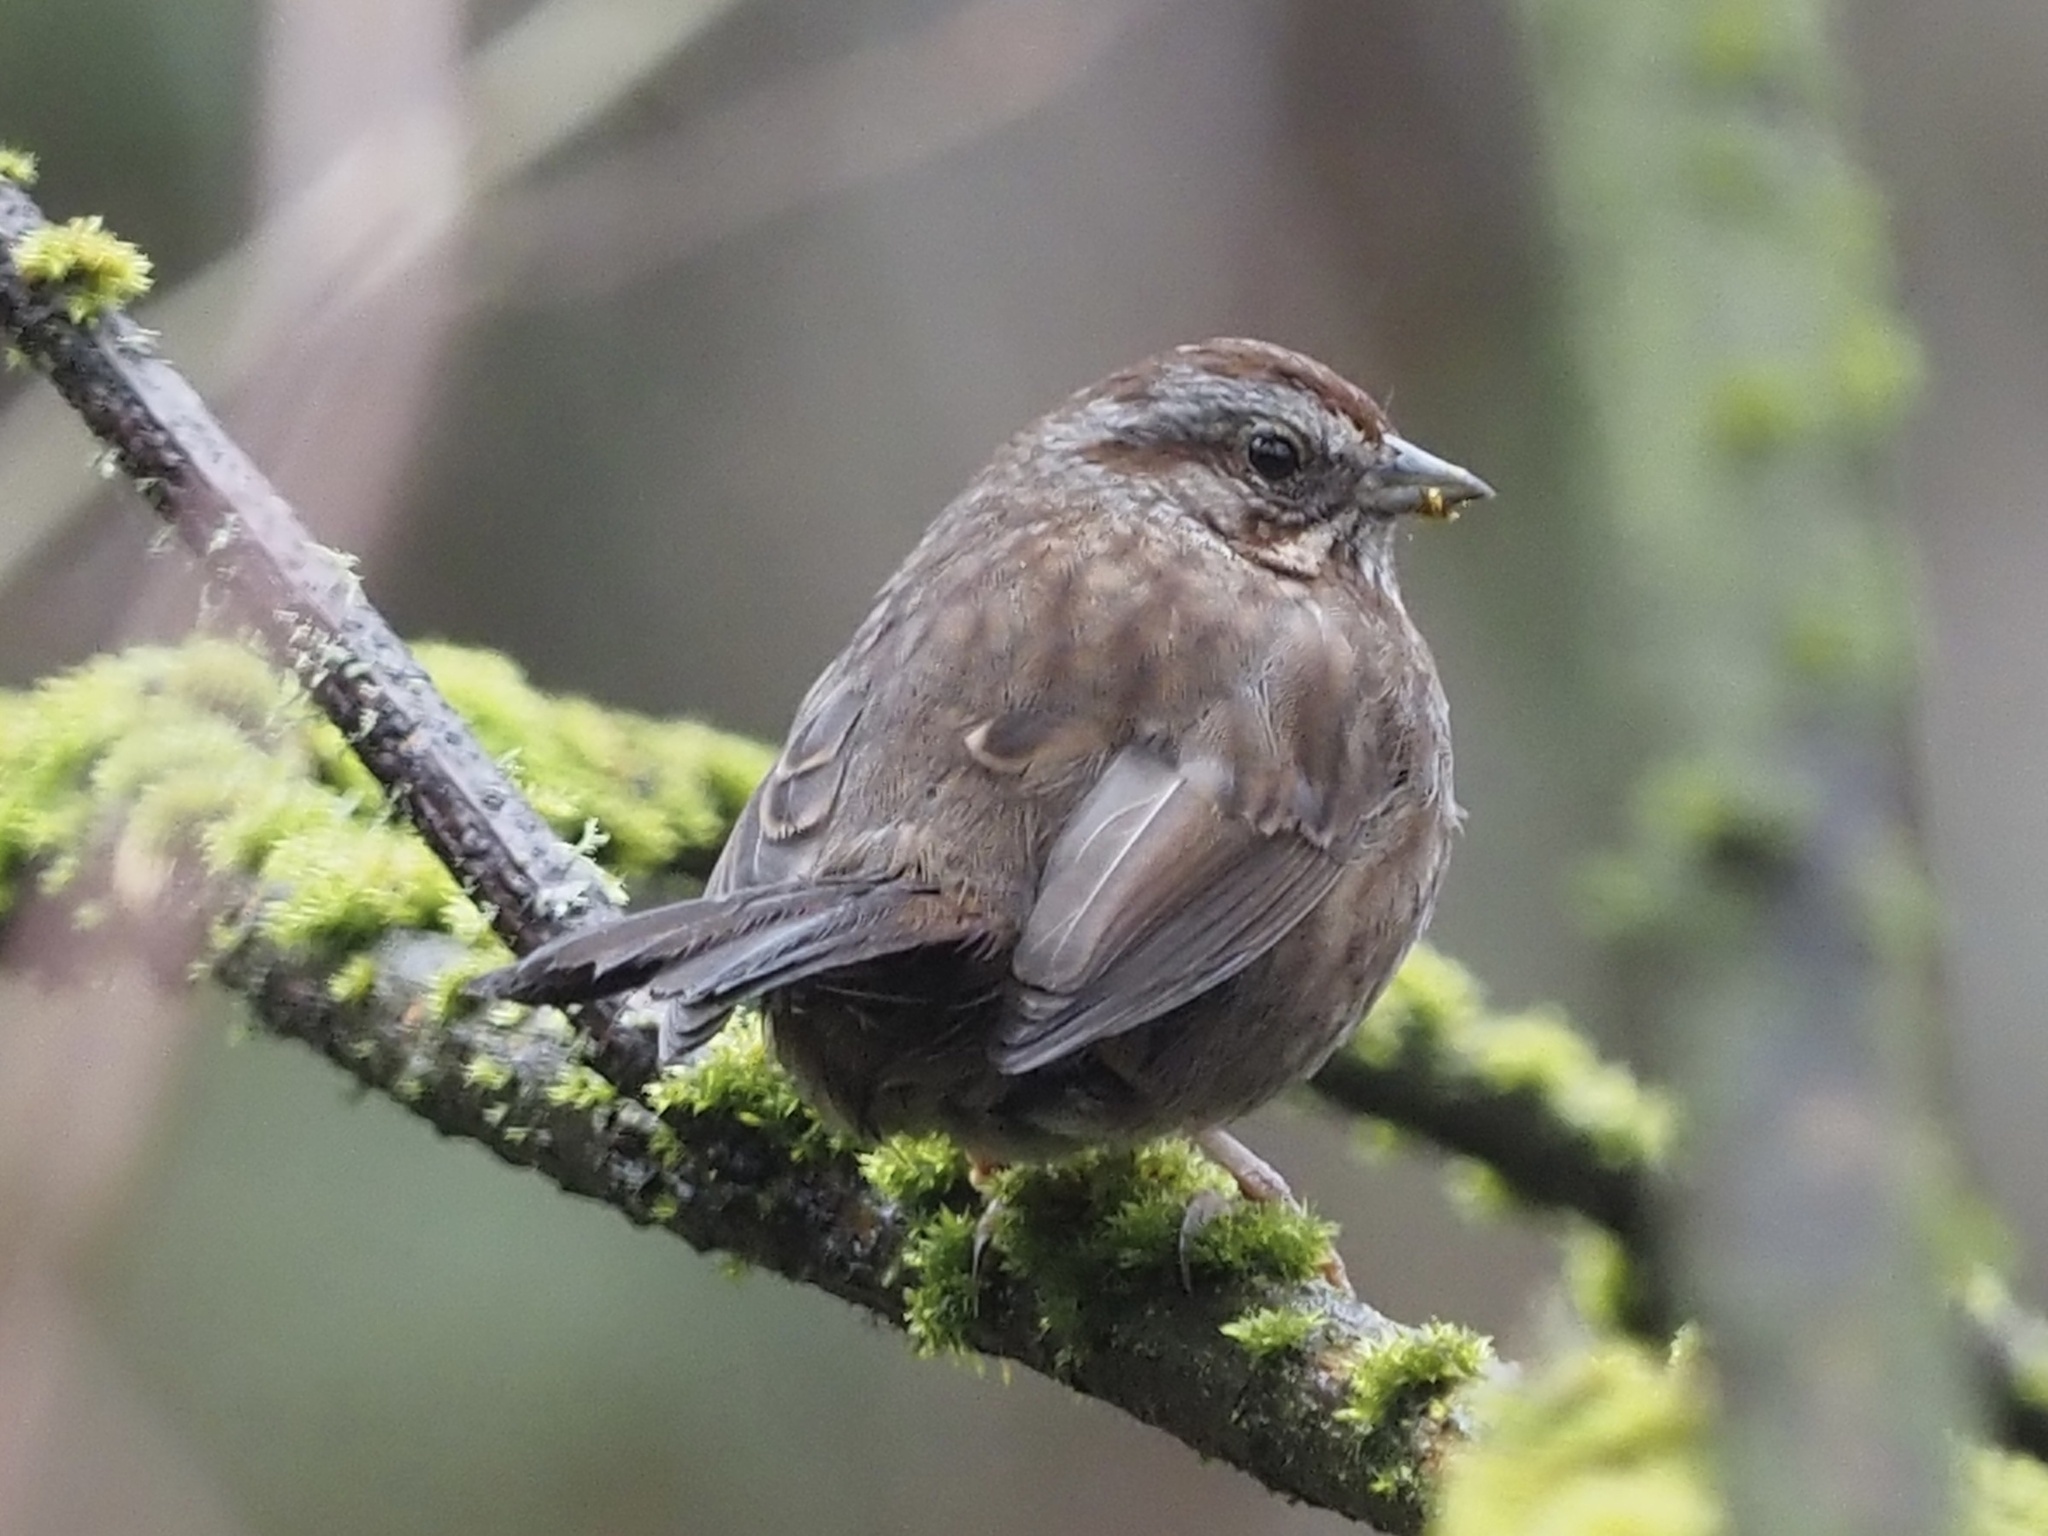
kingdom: Animalia
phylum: Chordata
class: Aves
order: Passeriformes
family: Passerellidae
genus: Melospiza
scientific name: Melospiza melodia
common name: Song sparrow
